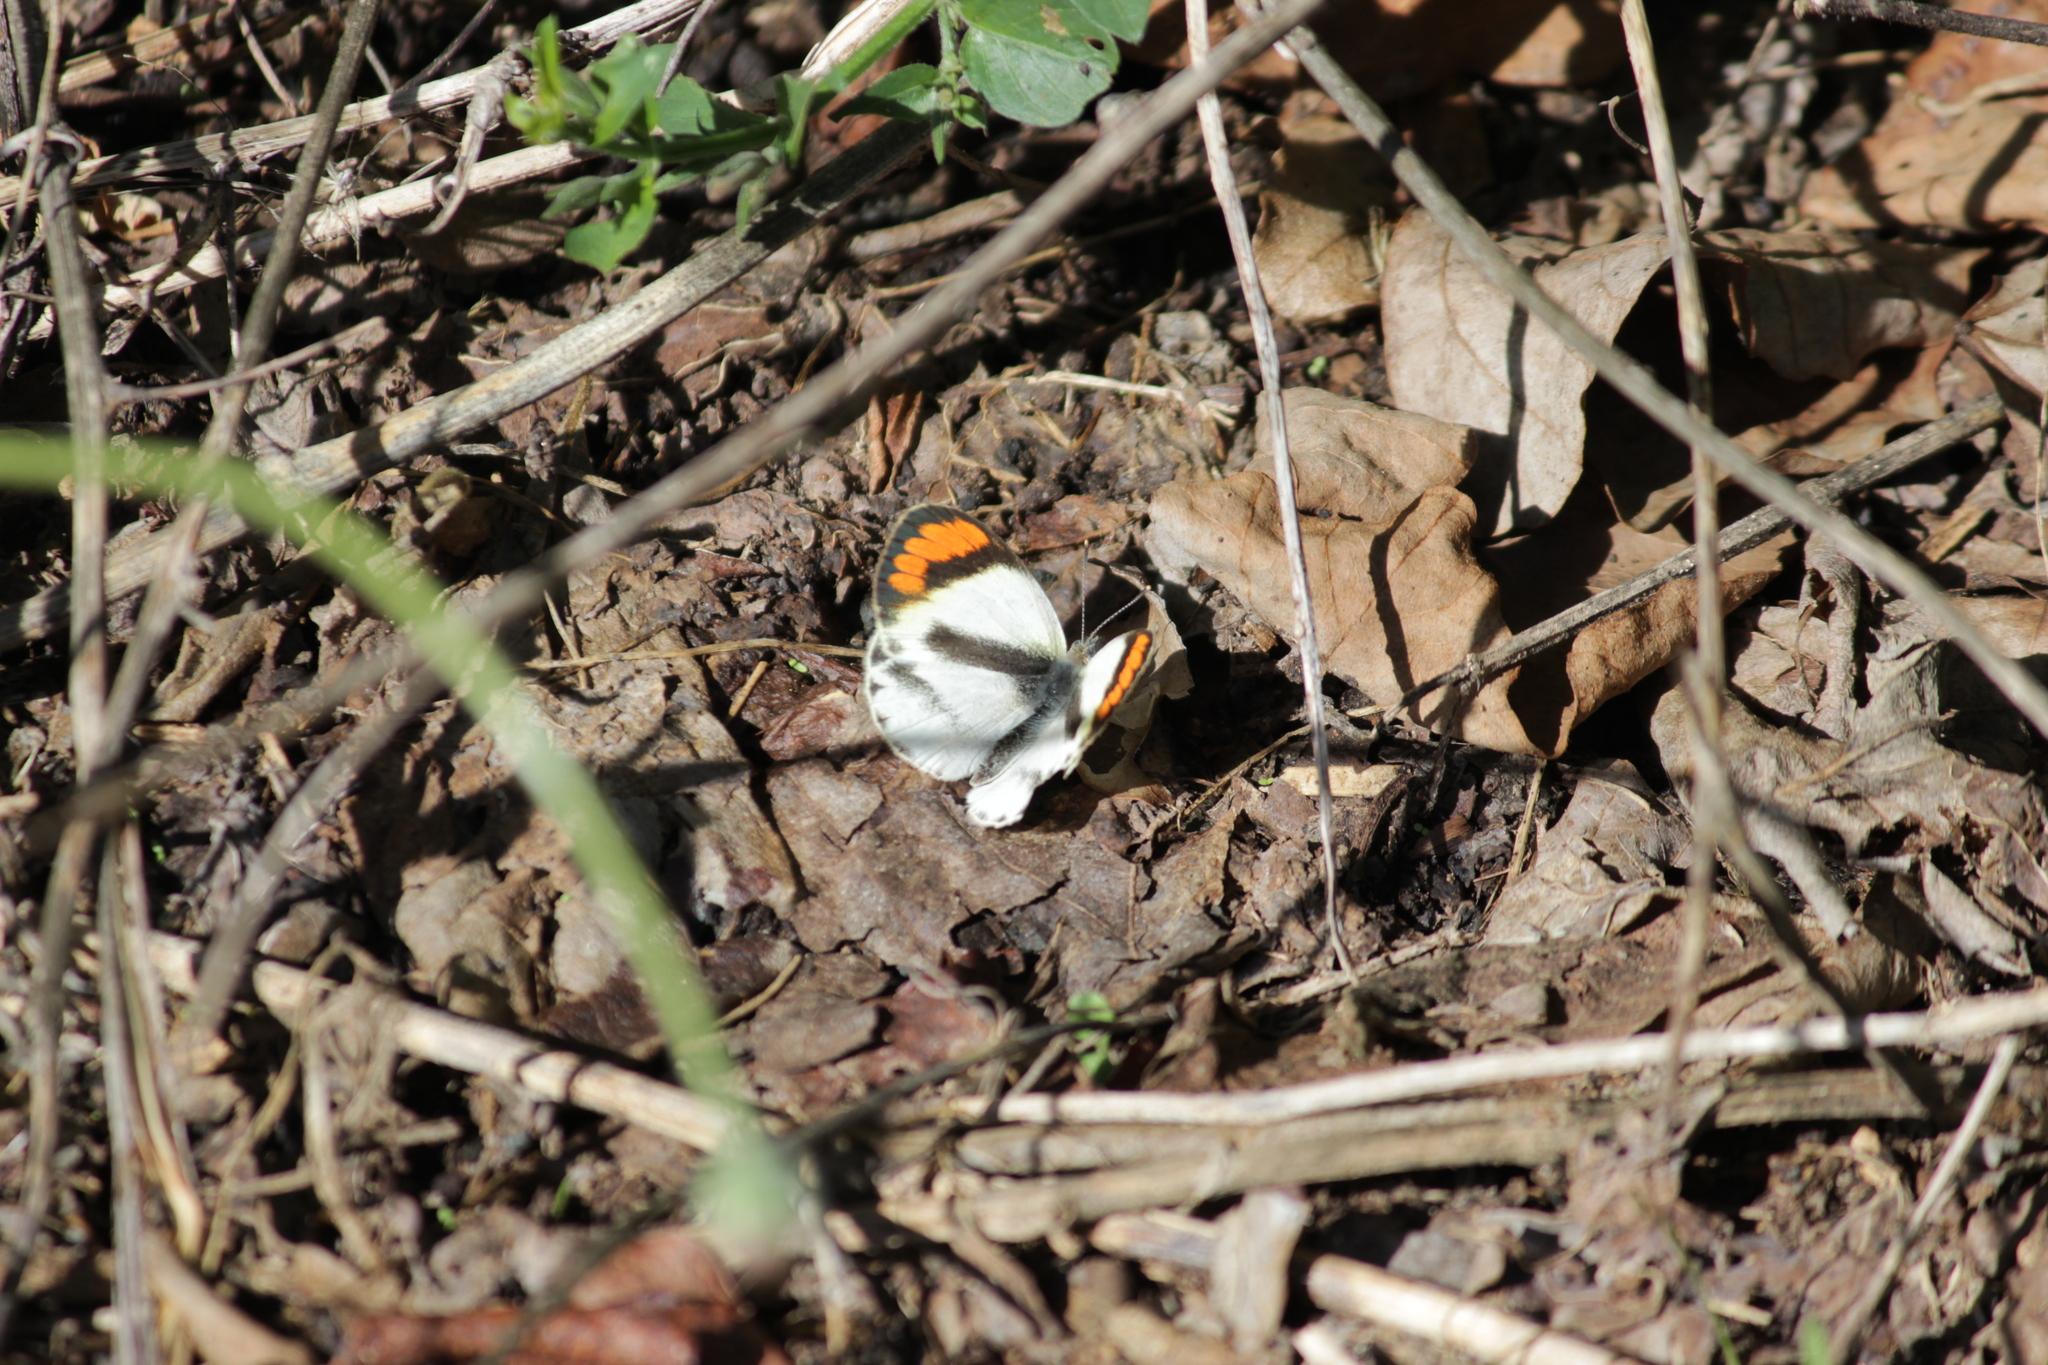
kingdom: Animalia
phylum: Arthropoda
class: Insecta
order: Lepidoptera
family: Pieridae
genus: Colotis
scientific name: Colotis euippe
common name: Round-winged orange tip
